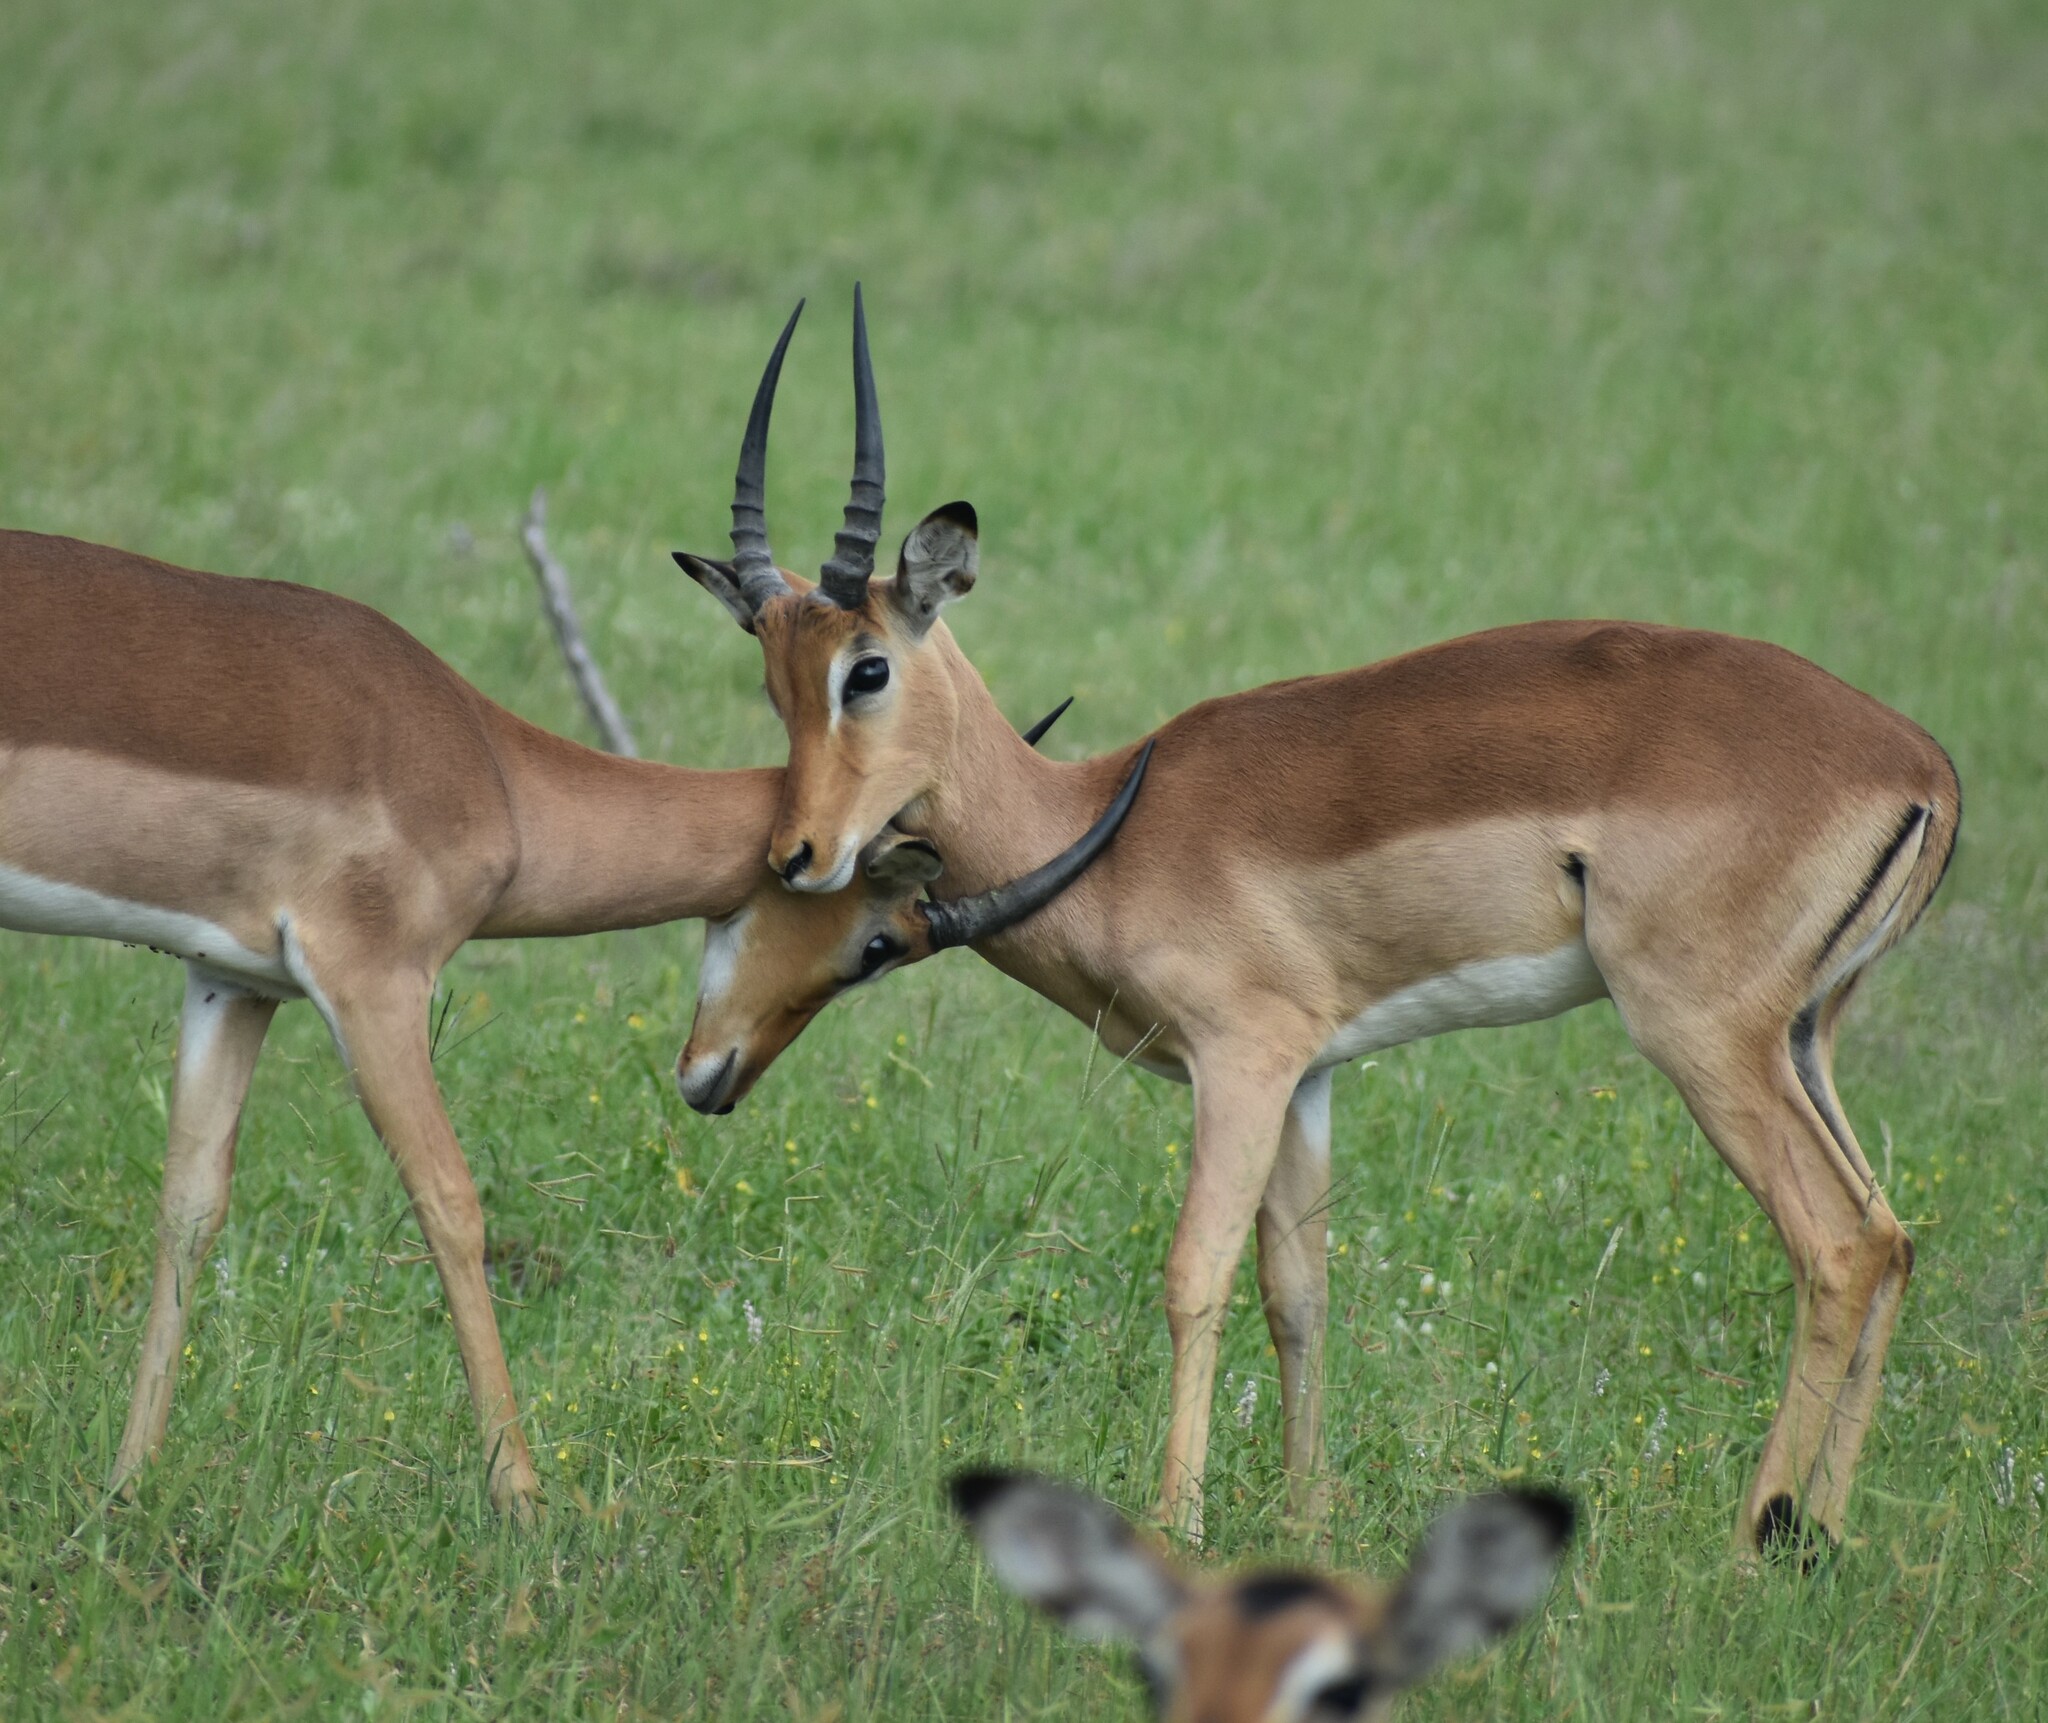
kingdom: Animalia
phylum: Chordata
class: Mammalia
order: Artiodactyla
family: Bovidae
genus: Aepyceros
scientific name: Aepyceros melampus
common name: Impala
